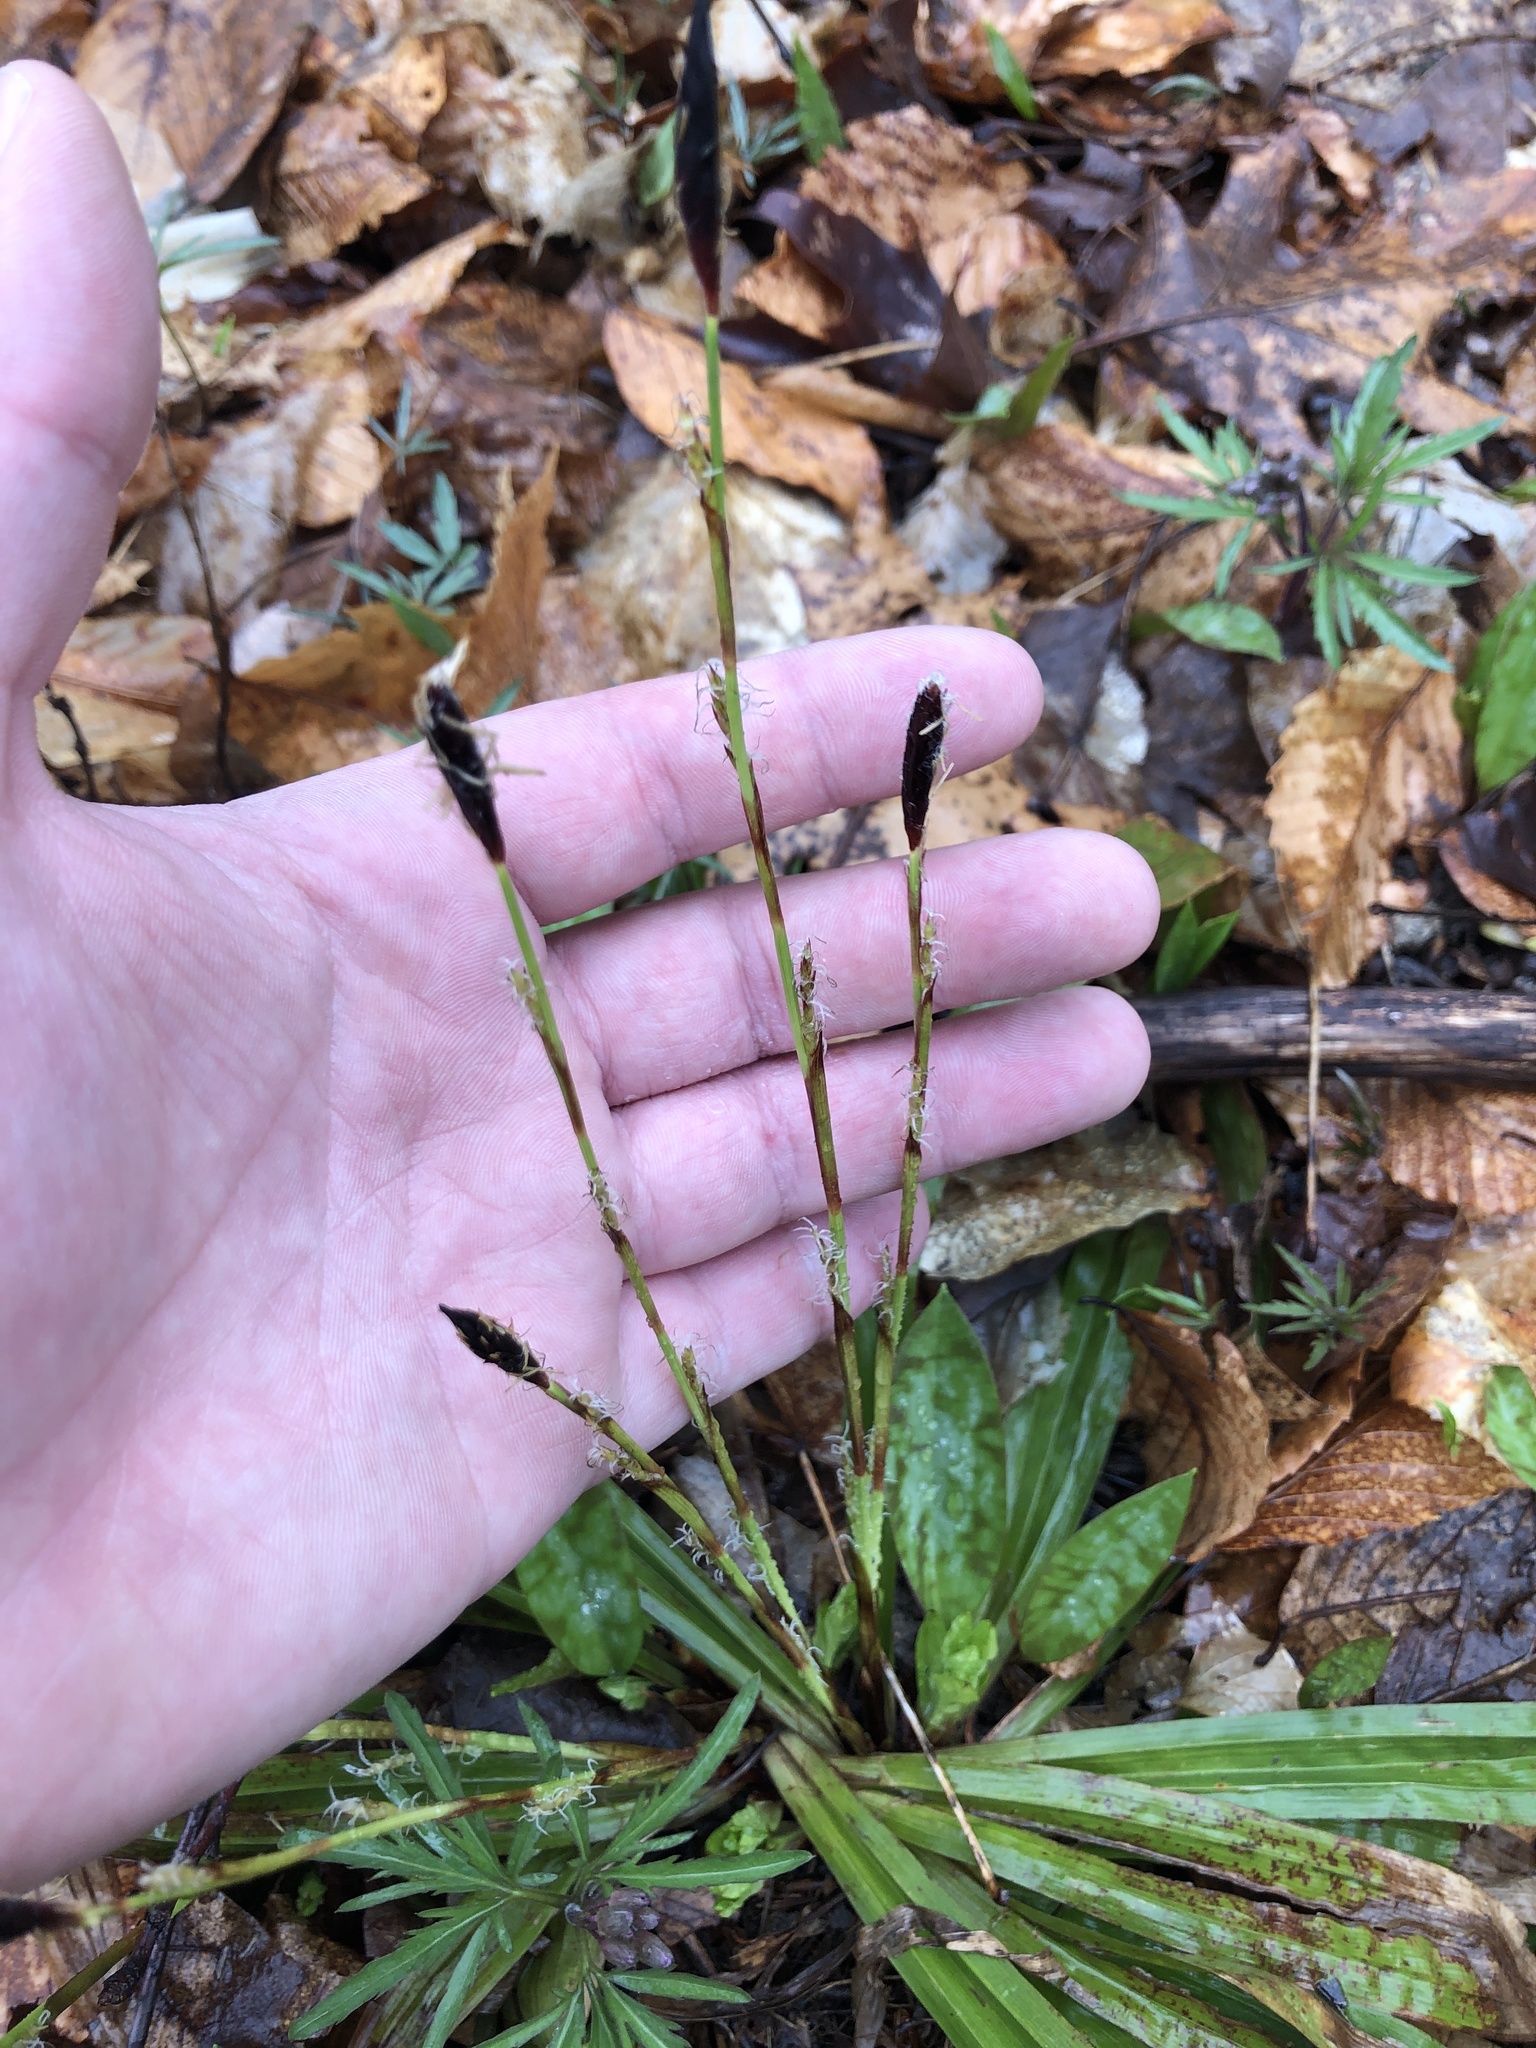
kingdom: Plantae
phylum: Tracheophyta
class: Liliopsida
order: Poales
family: Cyperaceae
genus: Carex
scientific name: Carex plantaginea
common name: Plantain-leaved sedge
